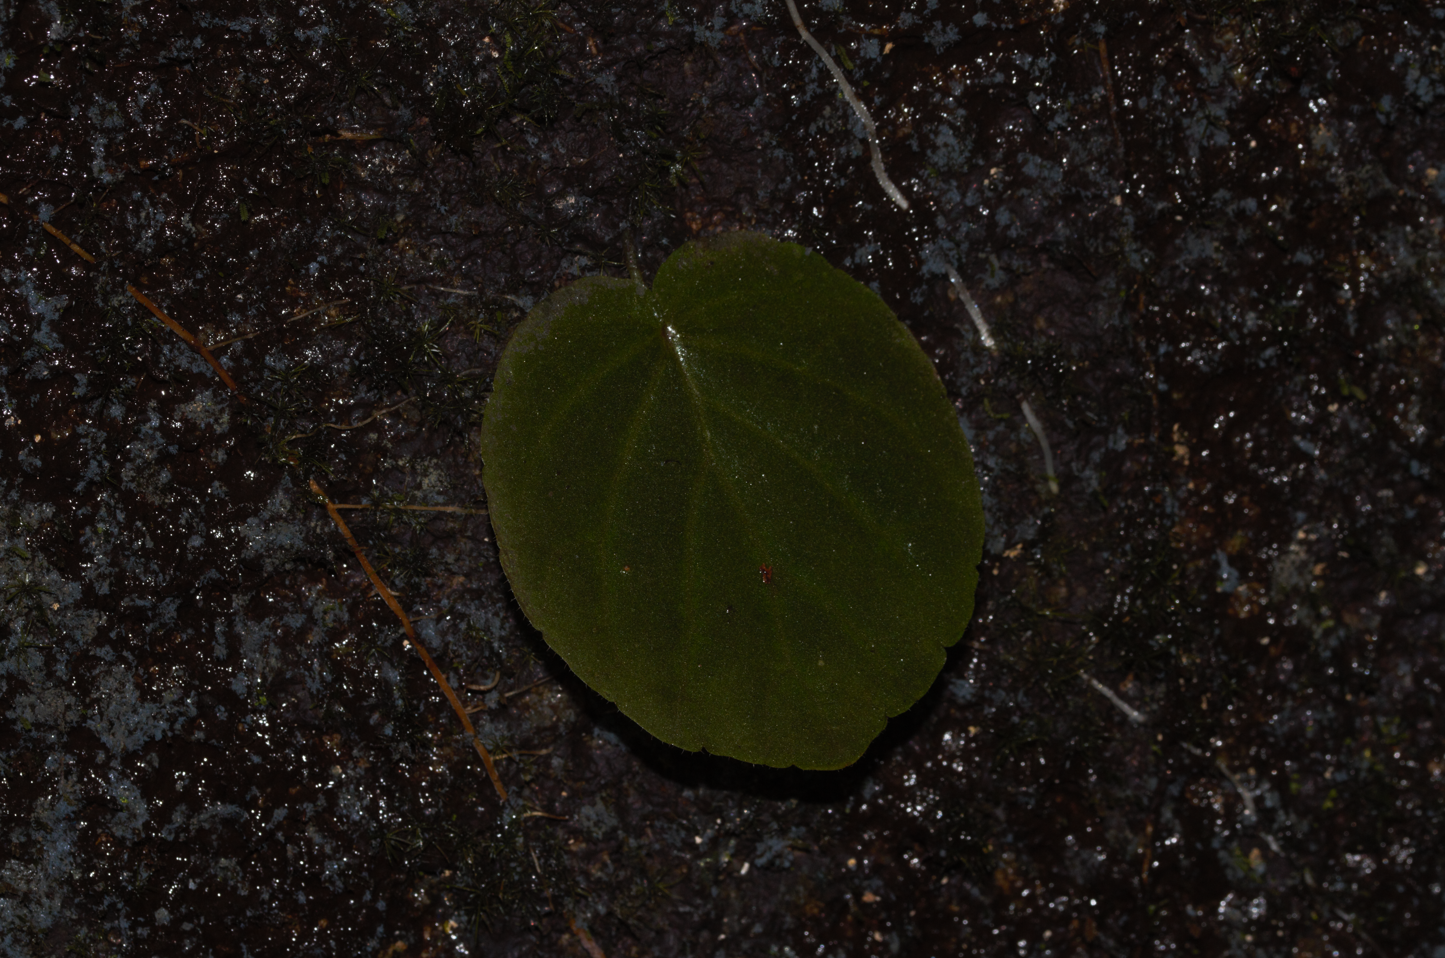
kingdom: Plantae
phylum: Tracheophyta
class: Magnoliopsida
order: Lamiales
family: Gesneriaceae
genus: Lembocarpus
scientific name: Lembocarpus amoenus
